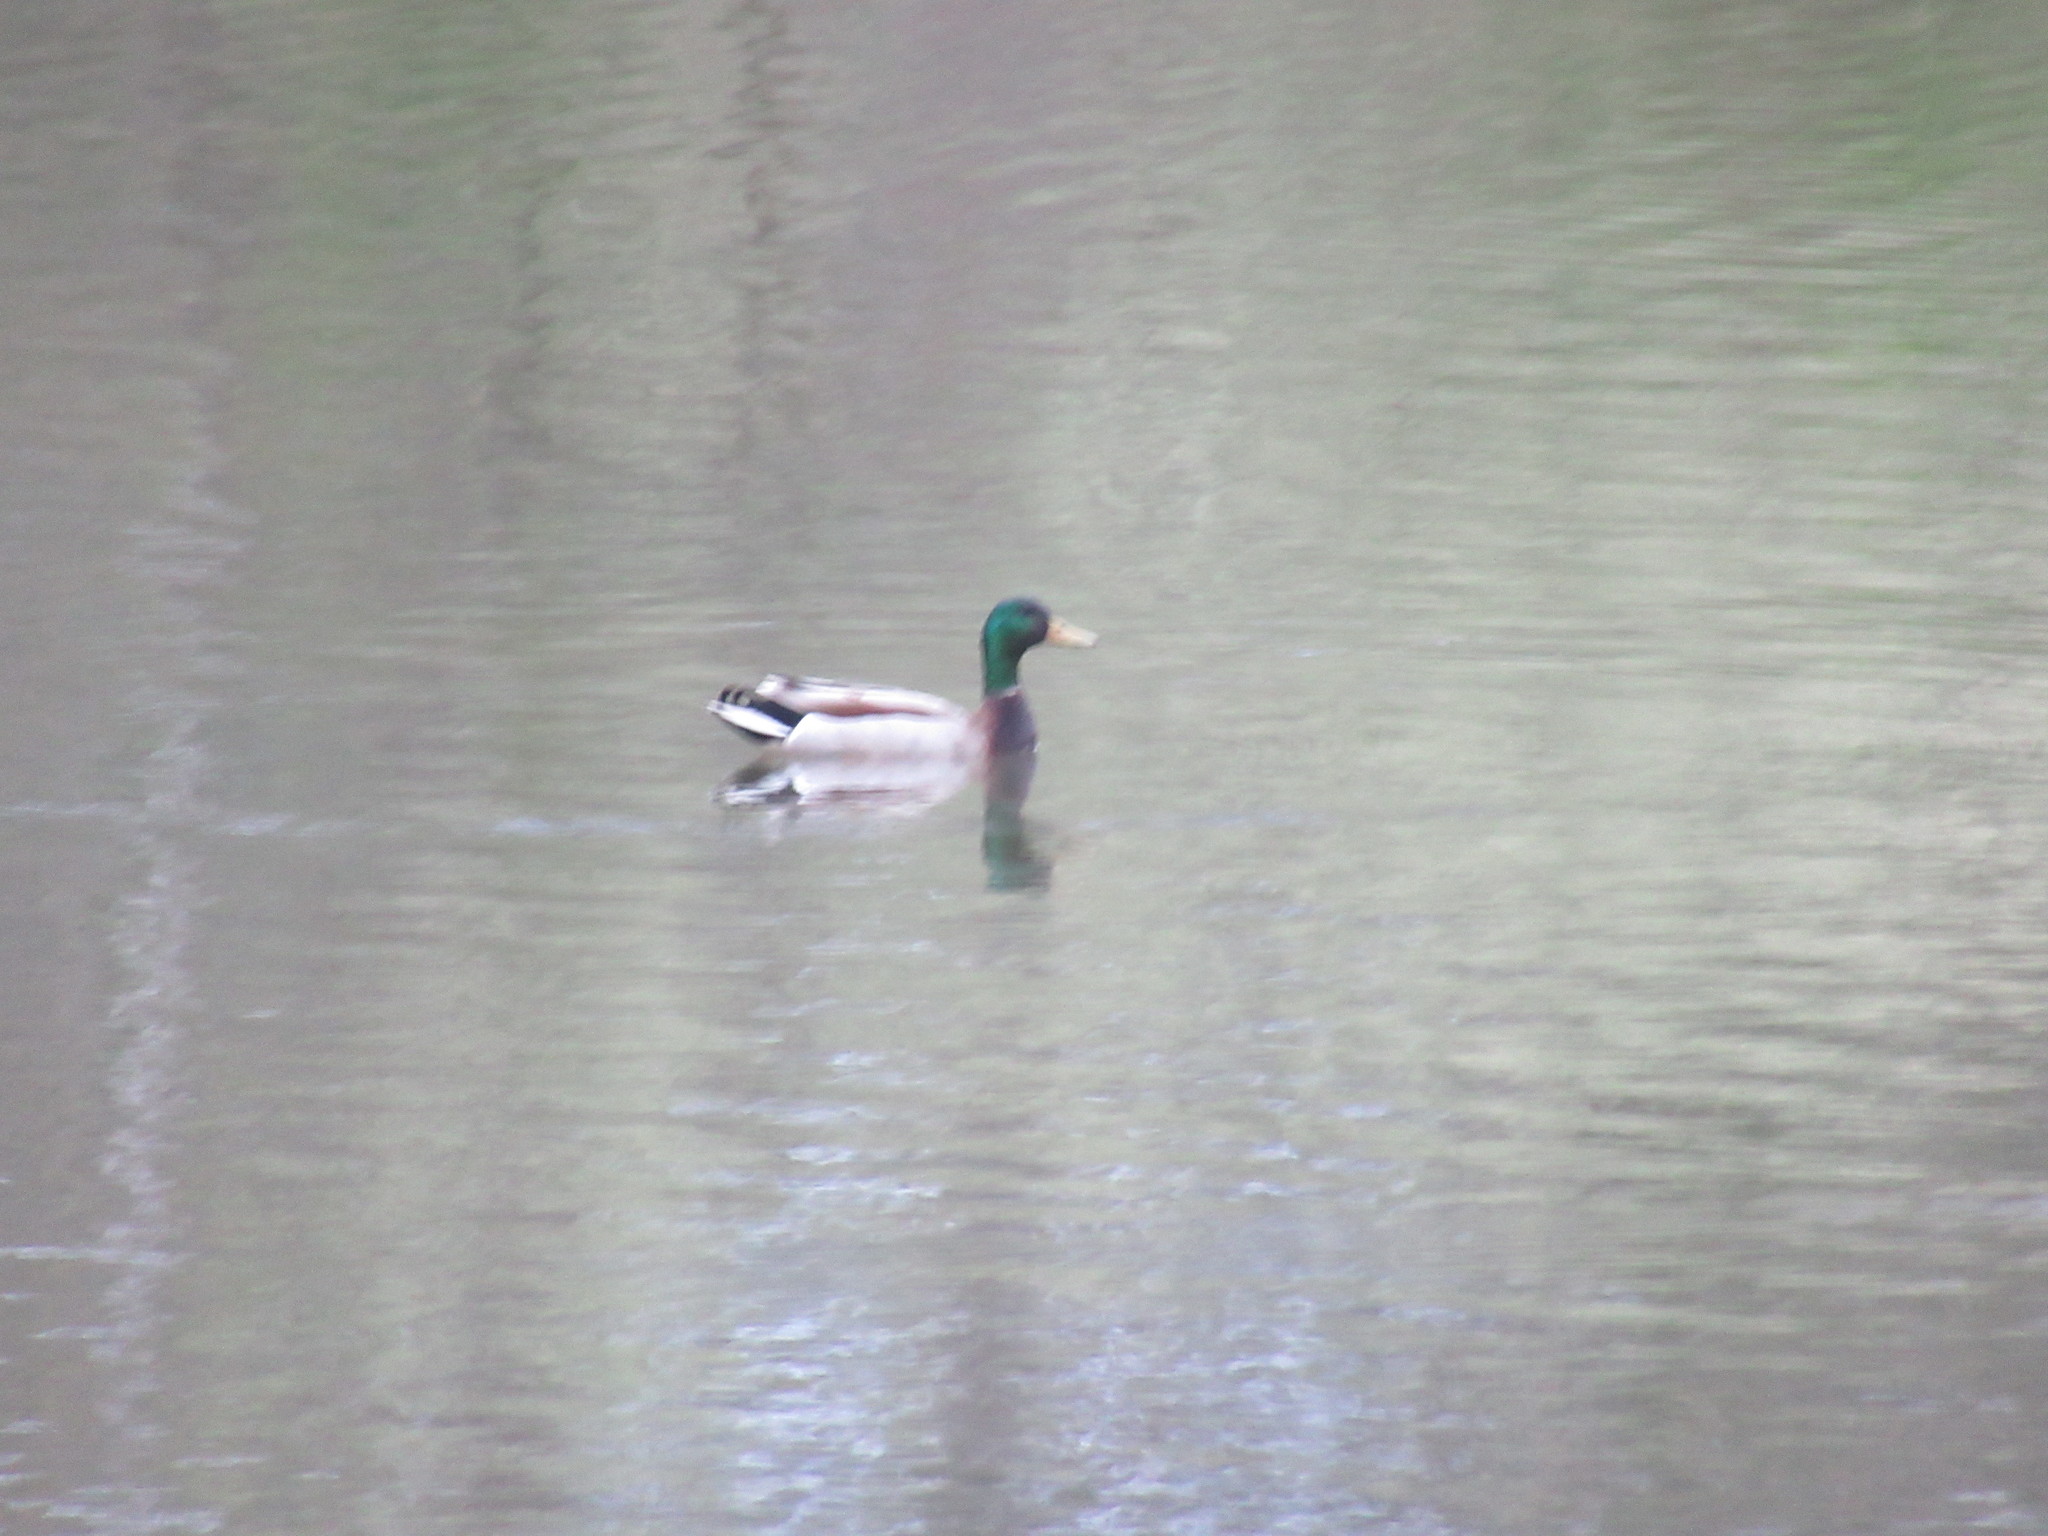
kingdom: Animalia
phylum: Chordata
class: Aves
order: Anseriformes
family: Anatidae
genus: Anas
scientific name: Anas platyrhynchos
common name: Mallard
